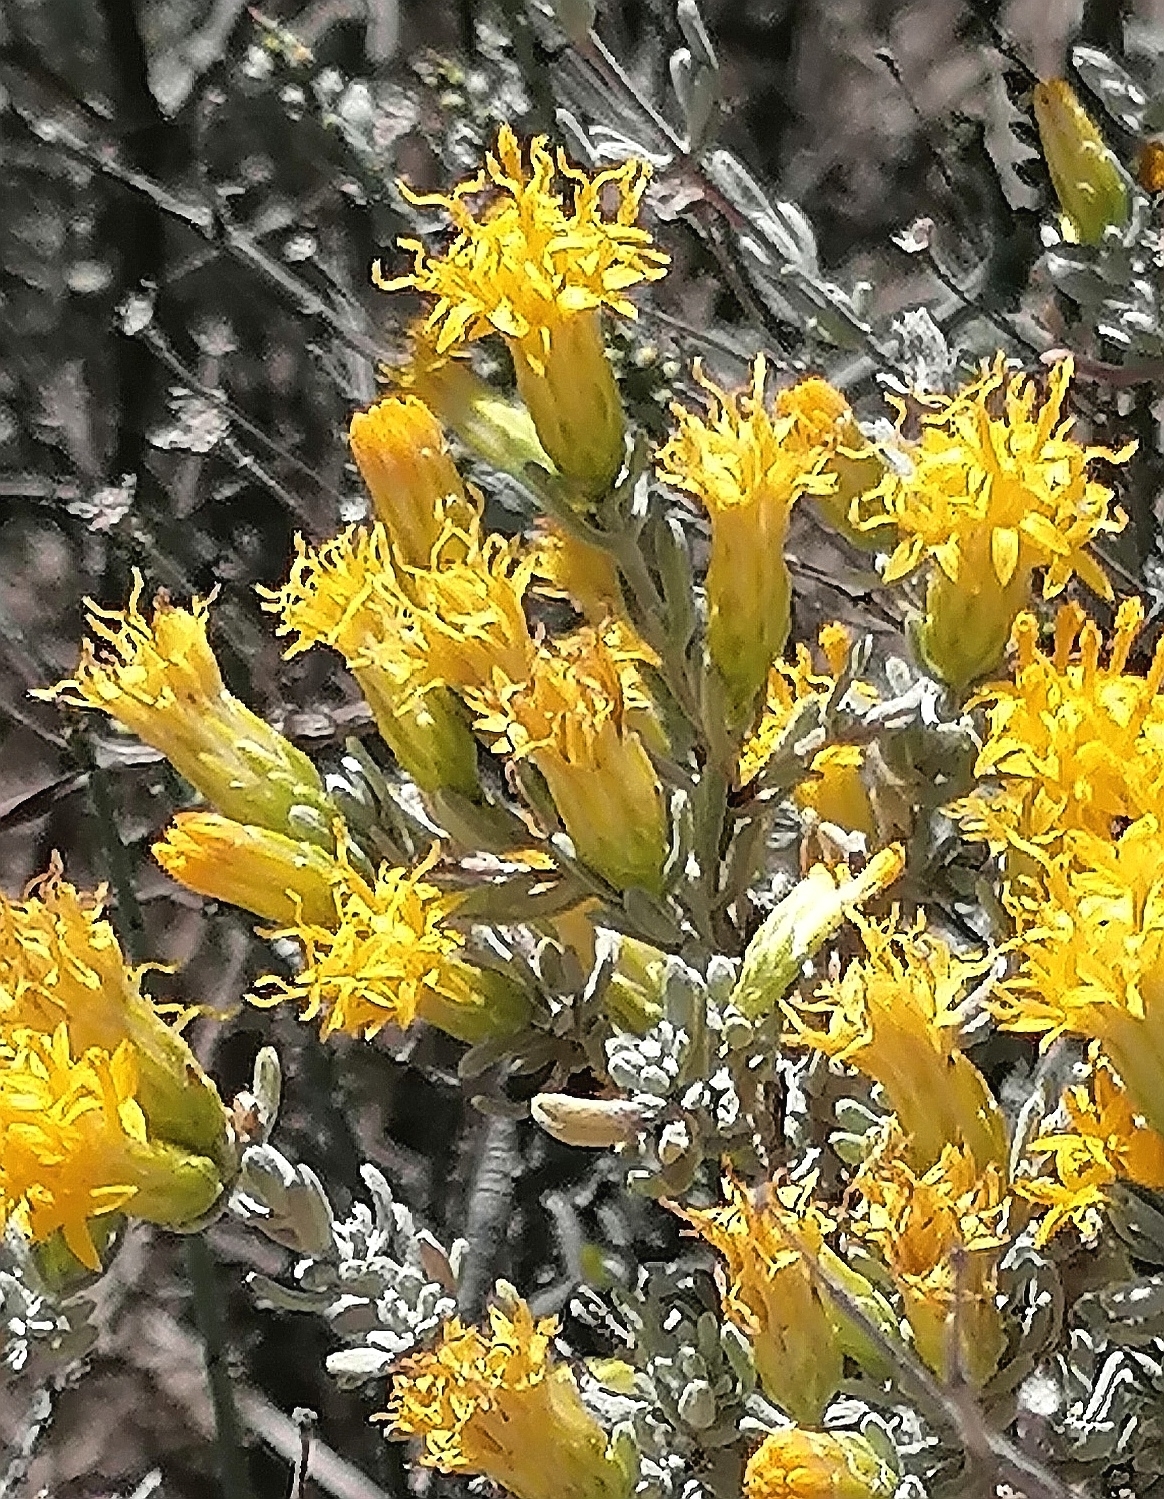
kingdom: Plantae
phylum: Tracheophyta
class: Magnoliopsida
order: Asterales
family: Asteraceae
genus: Pteronia
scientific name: Pteronia incana
